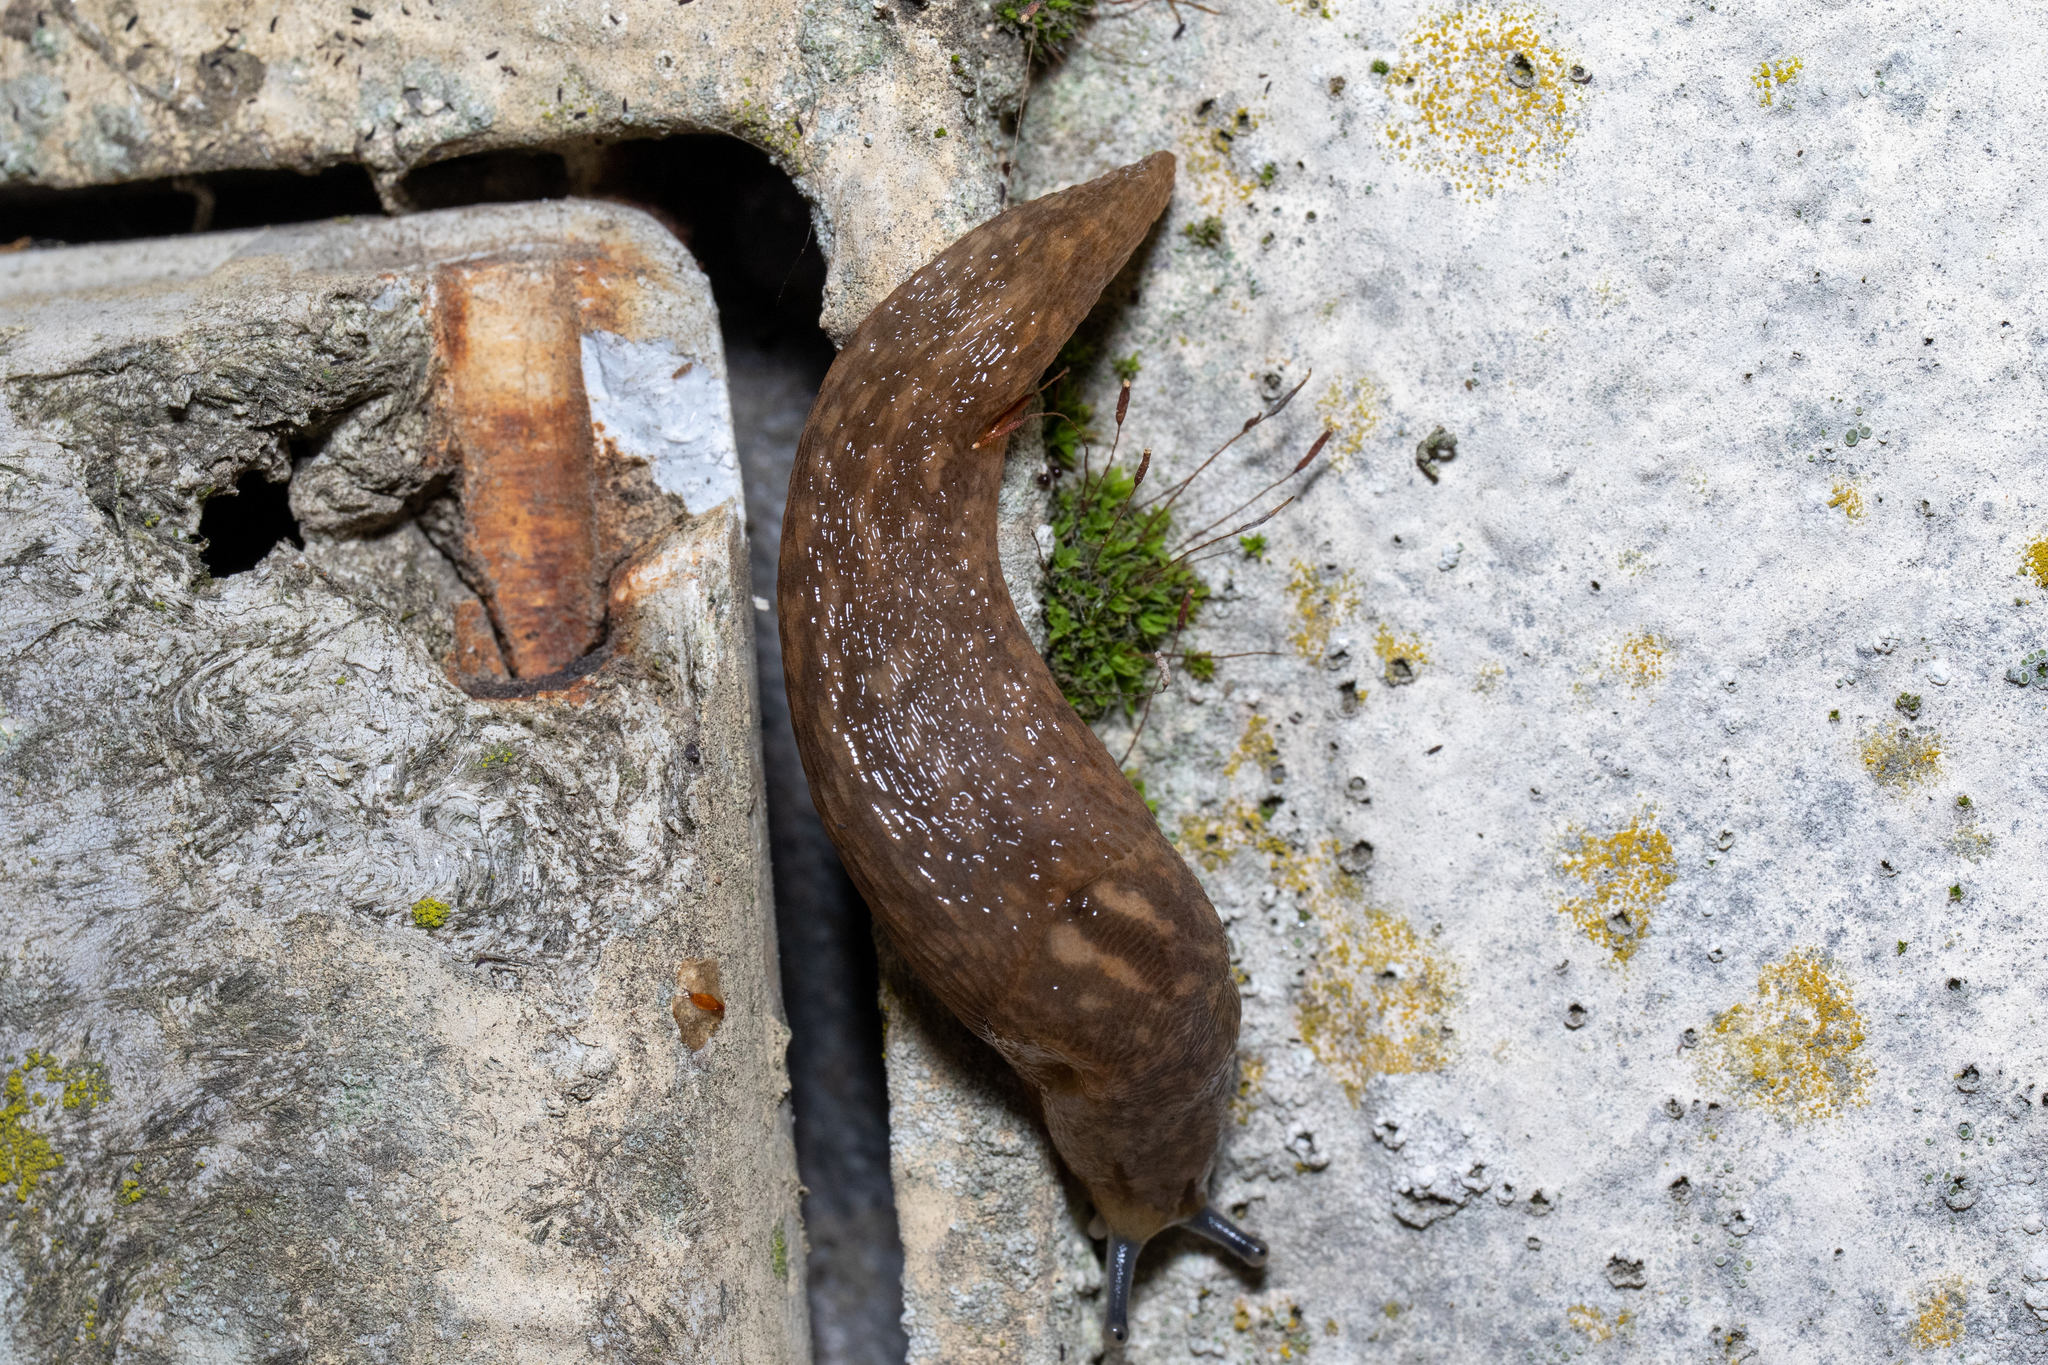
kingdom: Animalia
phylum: Mollusca
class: Gastropoda
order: Stylommatophora
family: Limacidae
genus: Limacus
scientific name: Limacus flavus
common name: Yellow gardenslug
